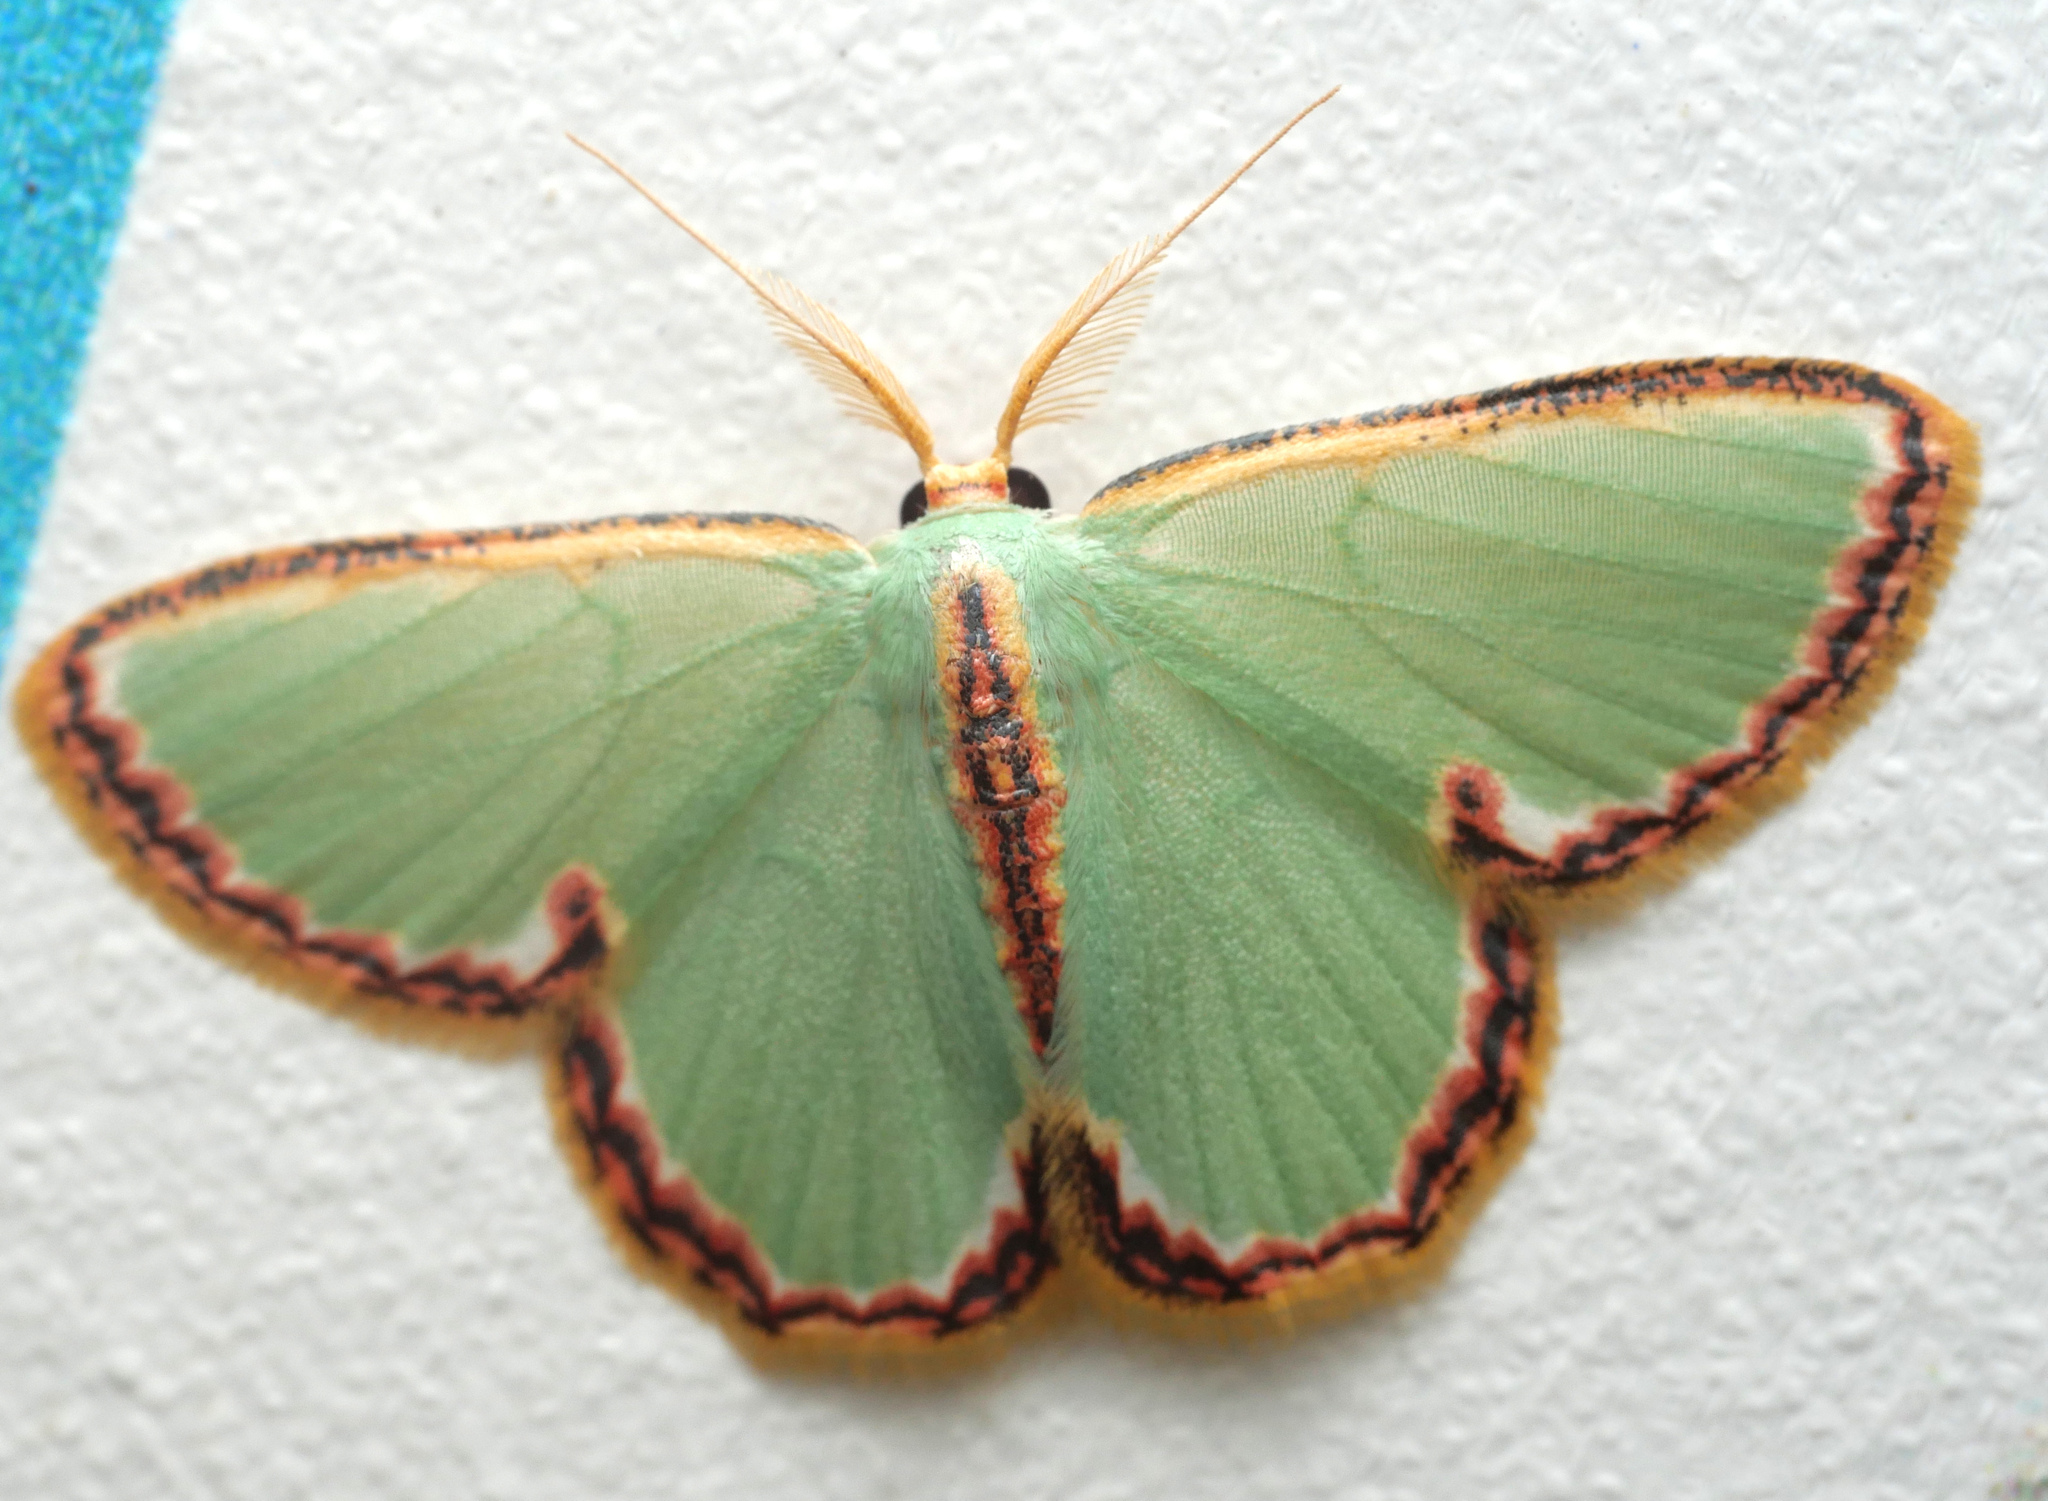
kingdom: Animalia
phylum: Arthropoda
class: Insecta
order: Lepidoptera
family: Geometridae
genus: Comostola
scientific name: Comostola pyrrhogona
